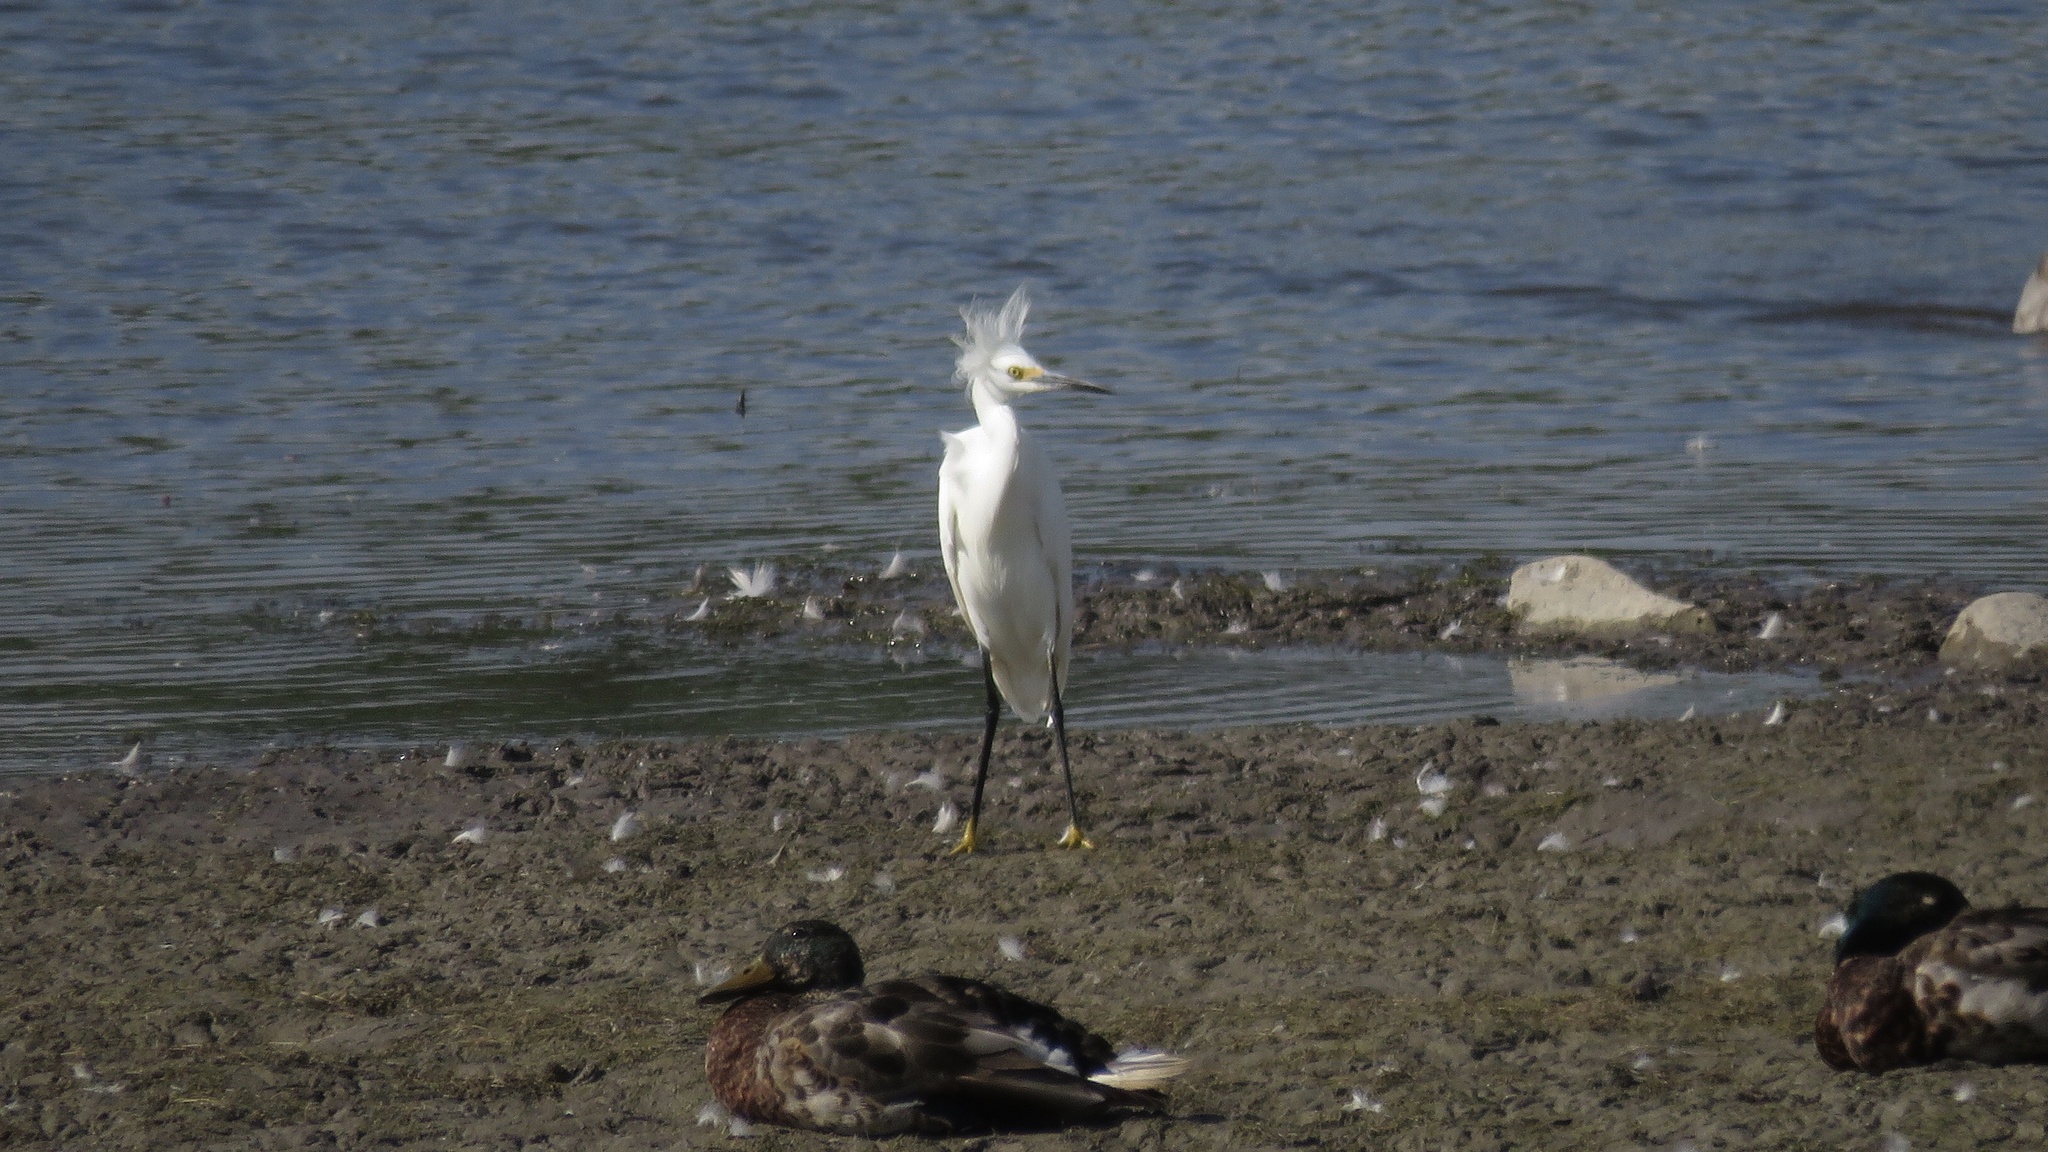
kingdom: Animalia
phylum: Chordata
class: Aves
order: Pelecaniformes
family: Ardeidae
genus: Egretta
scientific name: Egretta thula
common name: Snowy egret
